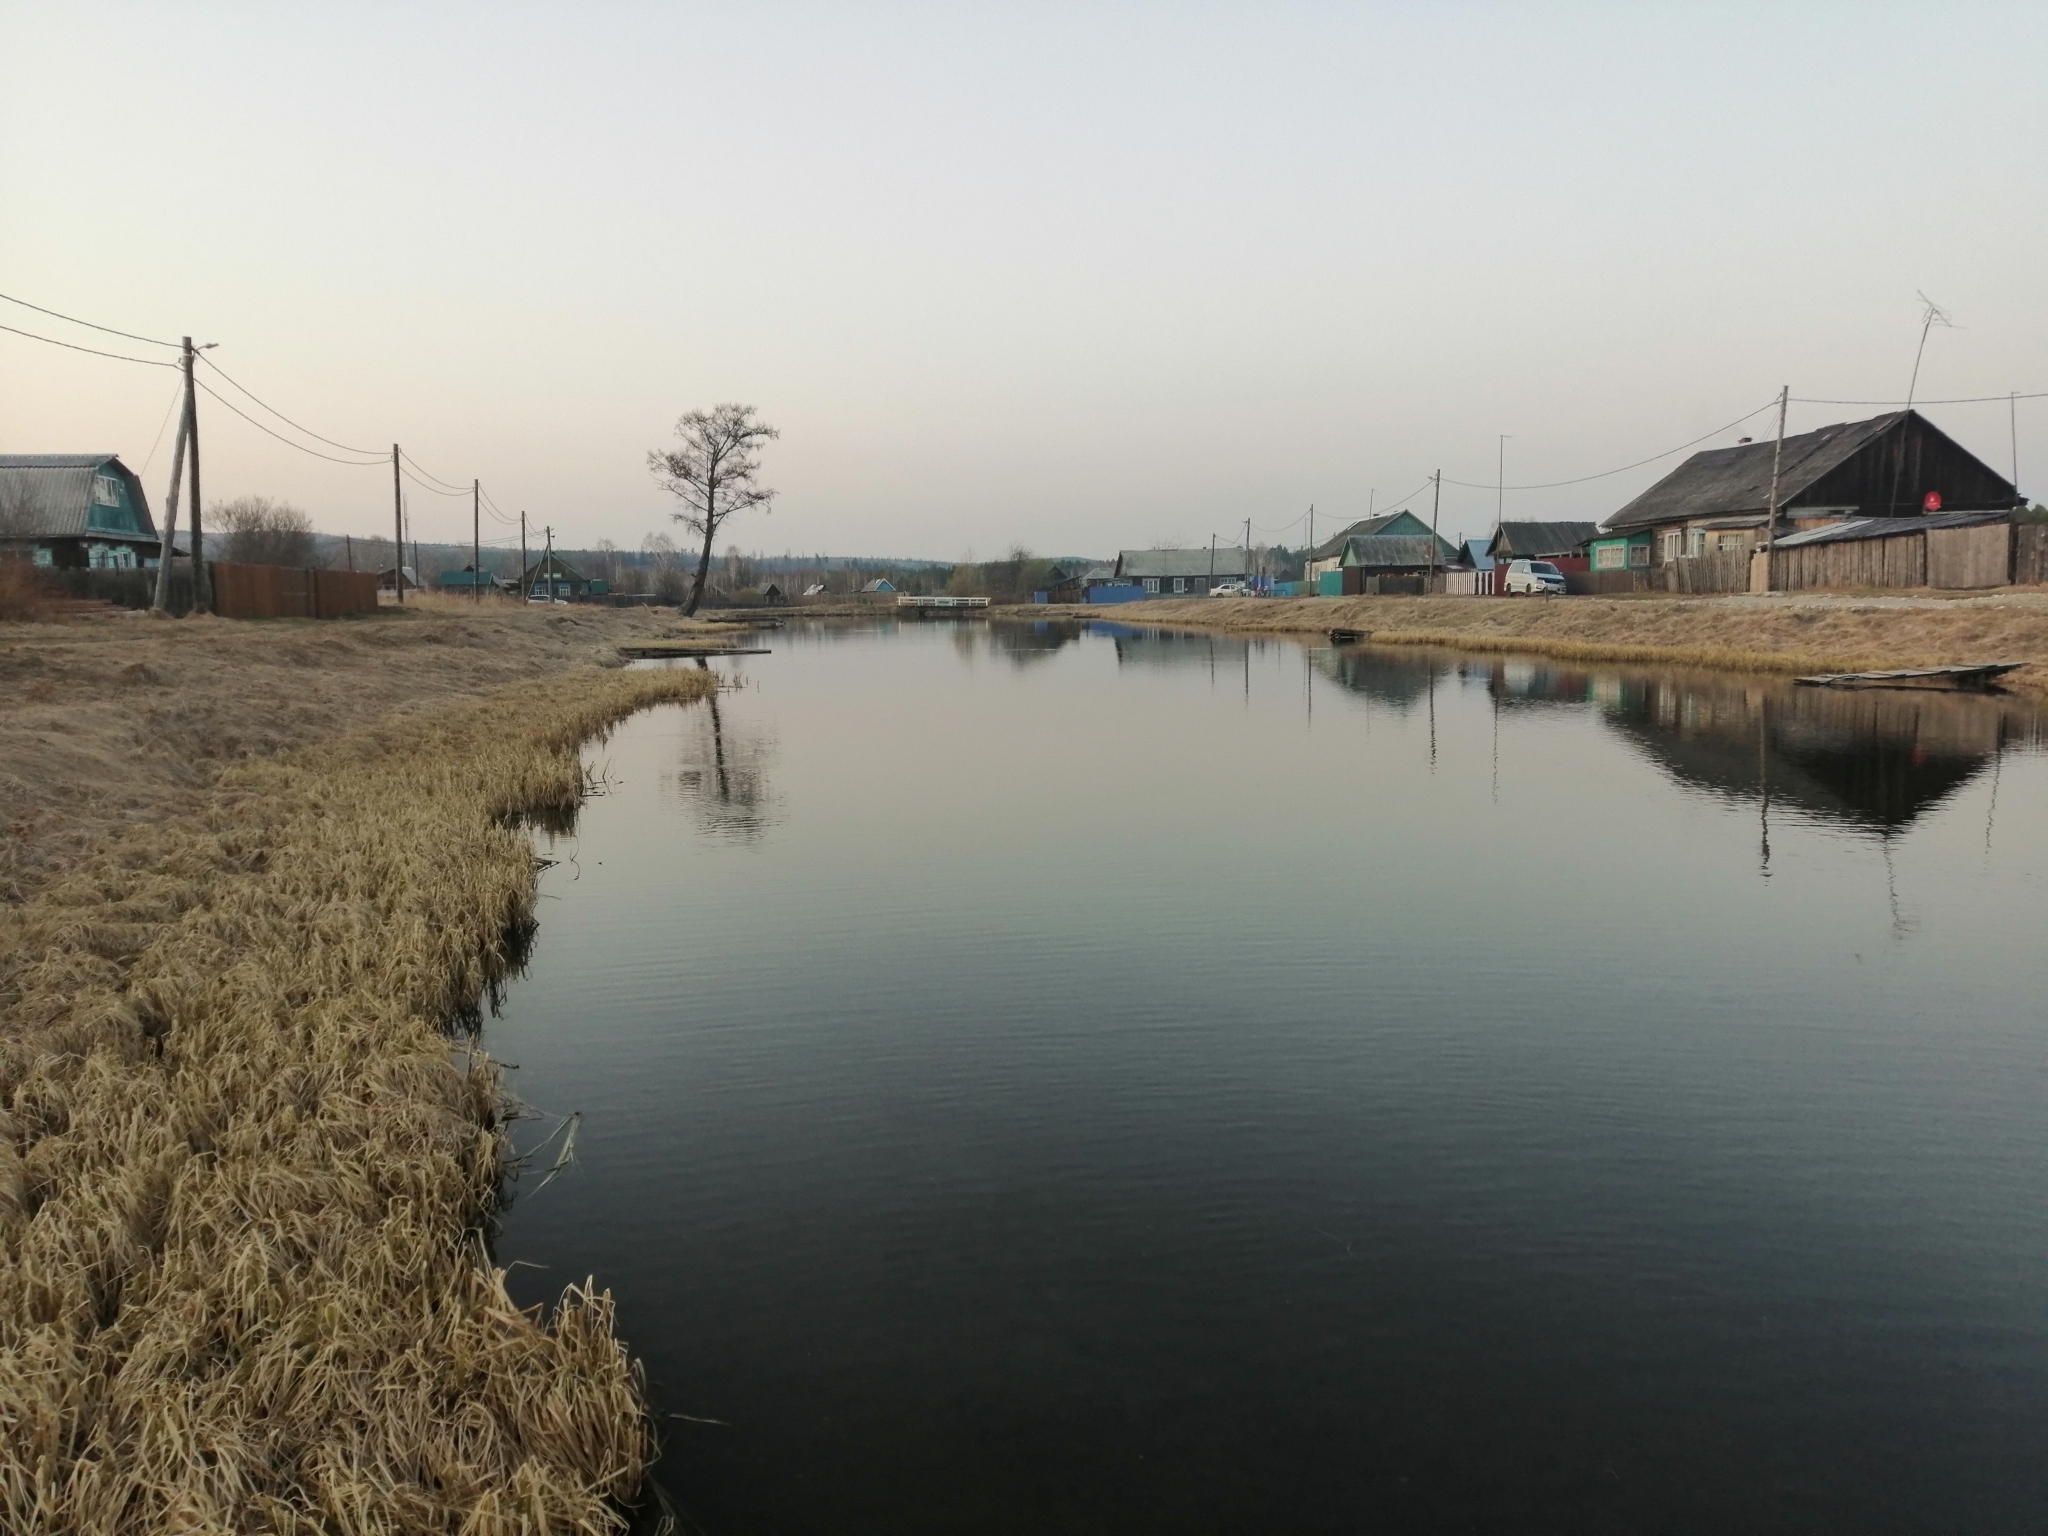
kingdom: Plantae
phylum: Tracheophyta
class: Pinopsida
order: Pinales
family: Pinaceae
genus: Larix
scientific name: Larix sibirica
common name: Siberian larch
